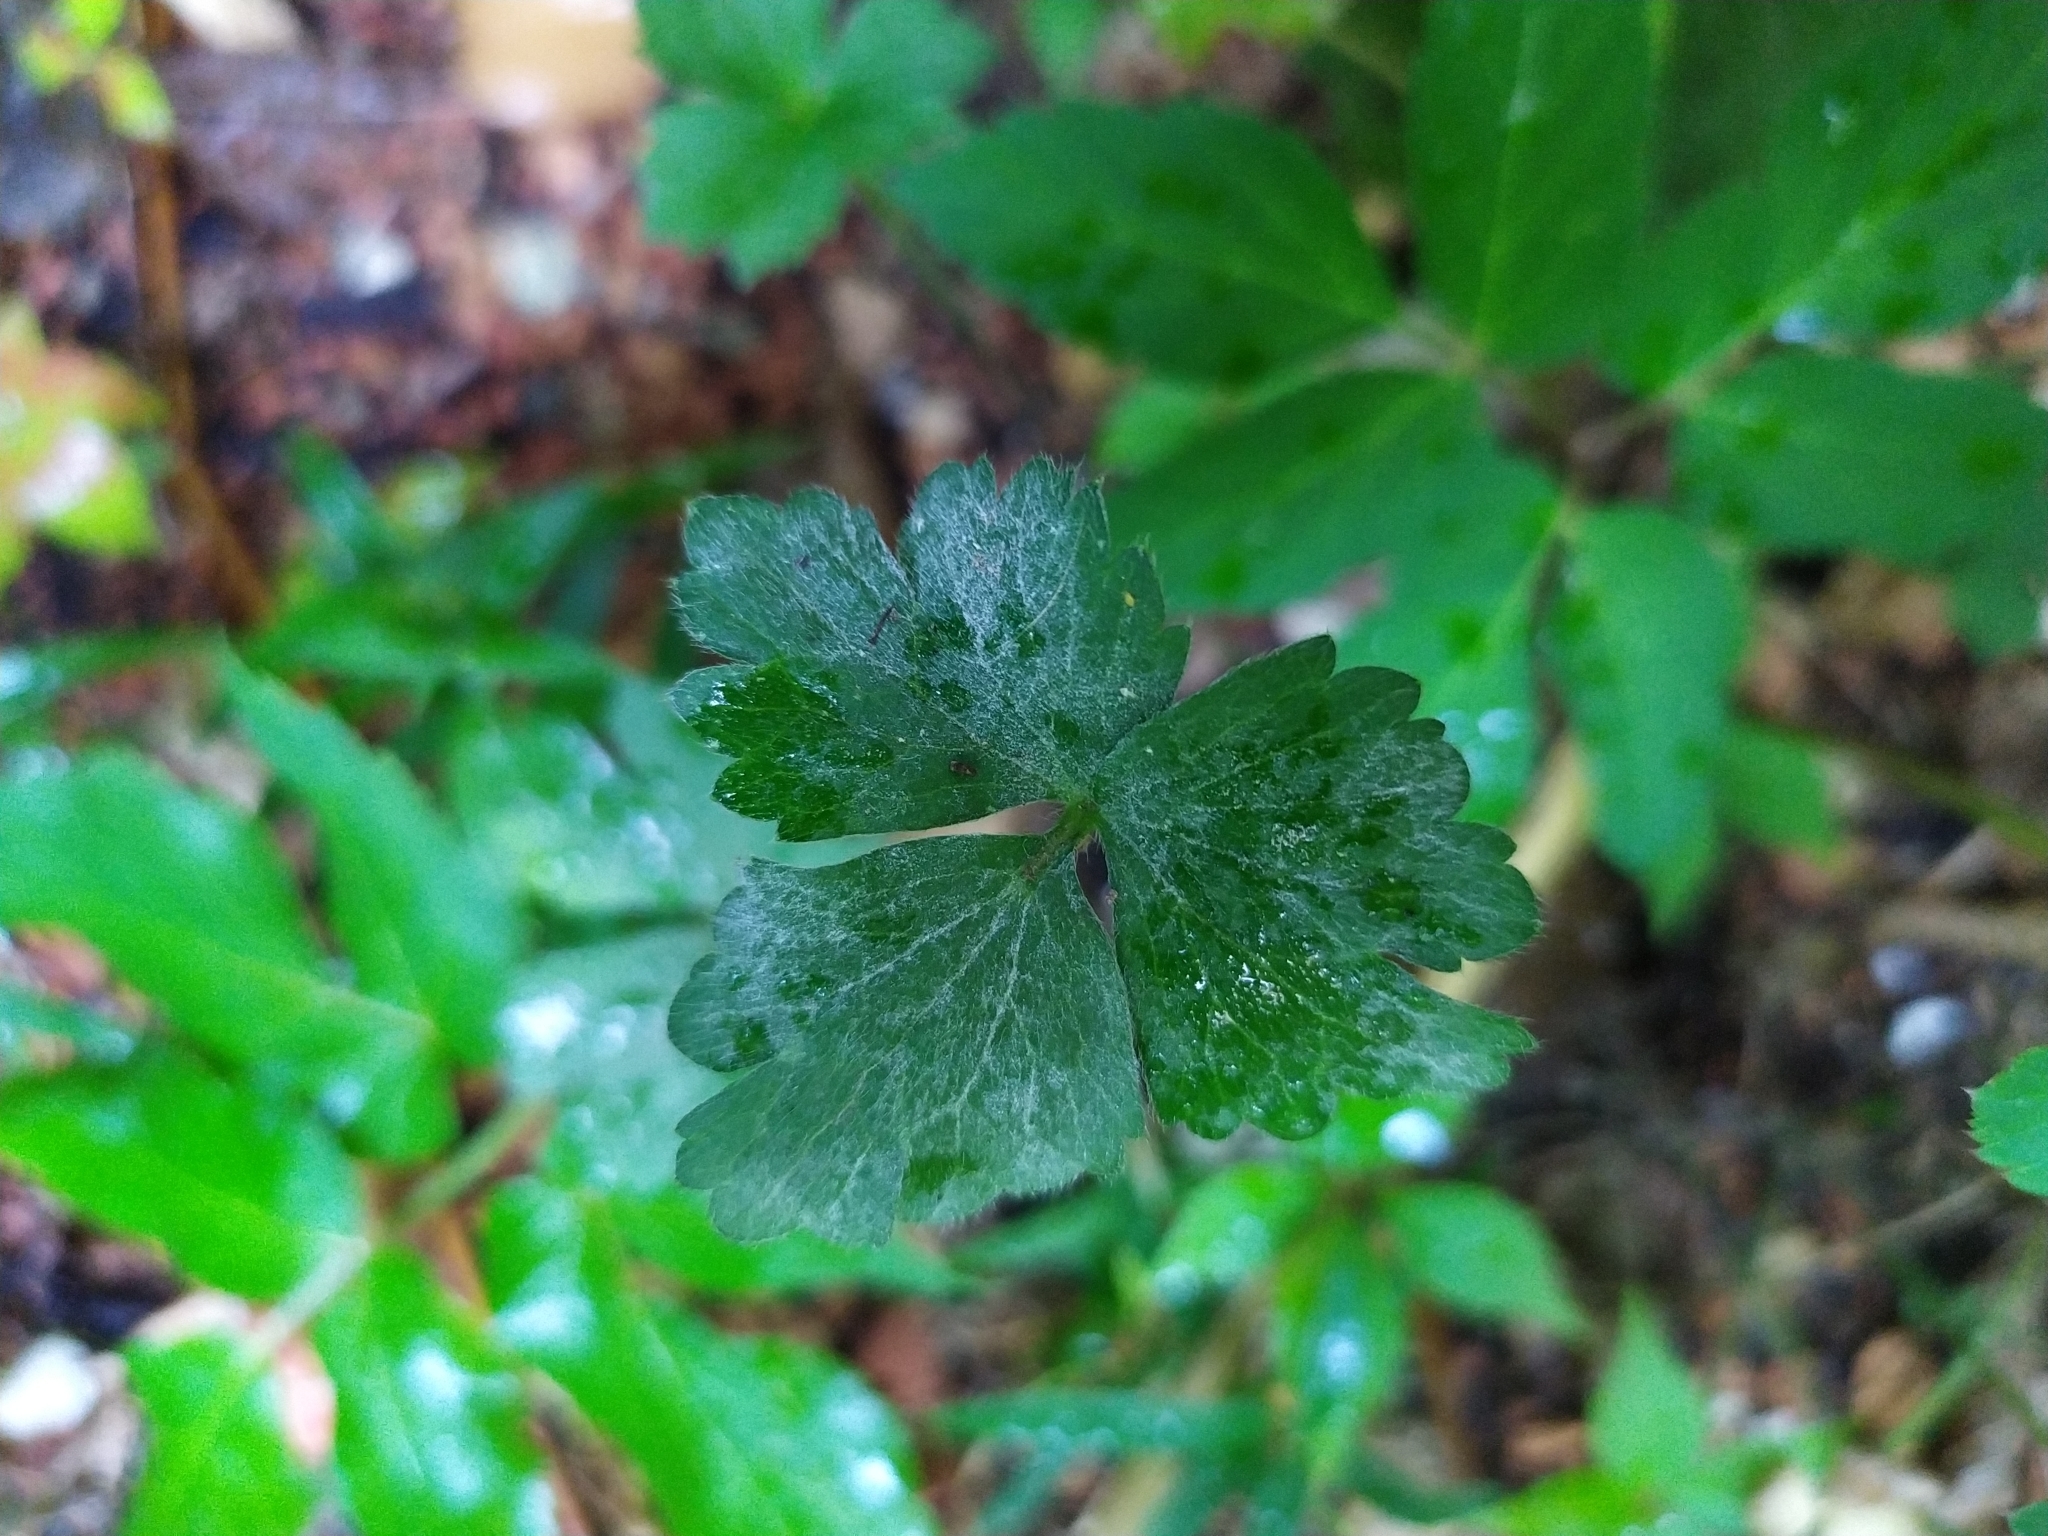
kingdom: Fungi
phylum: Ascomycota
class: Leotiomycetes
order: Helotiales
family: Erysiphaceae
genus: Erysiphe
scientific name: Erysiphe aquilegiae
